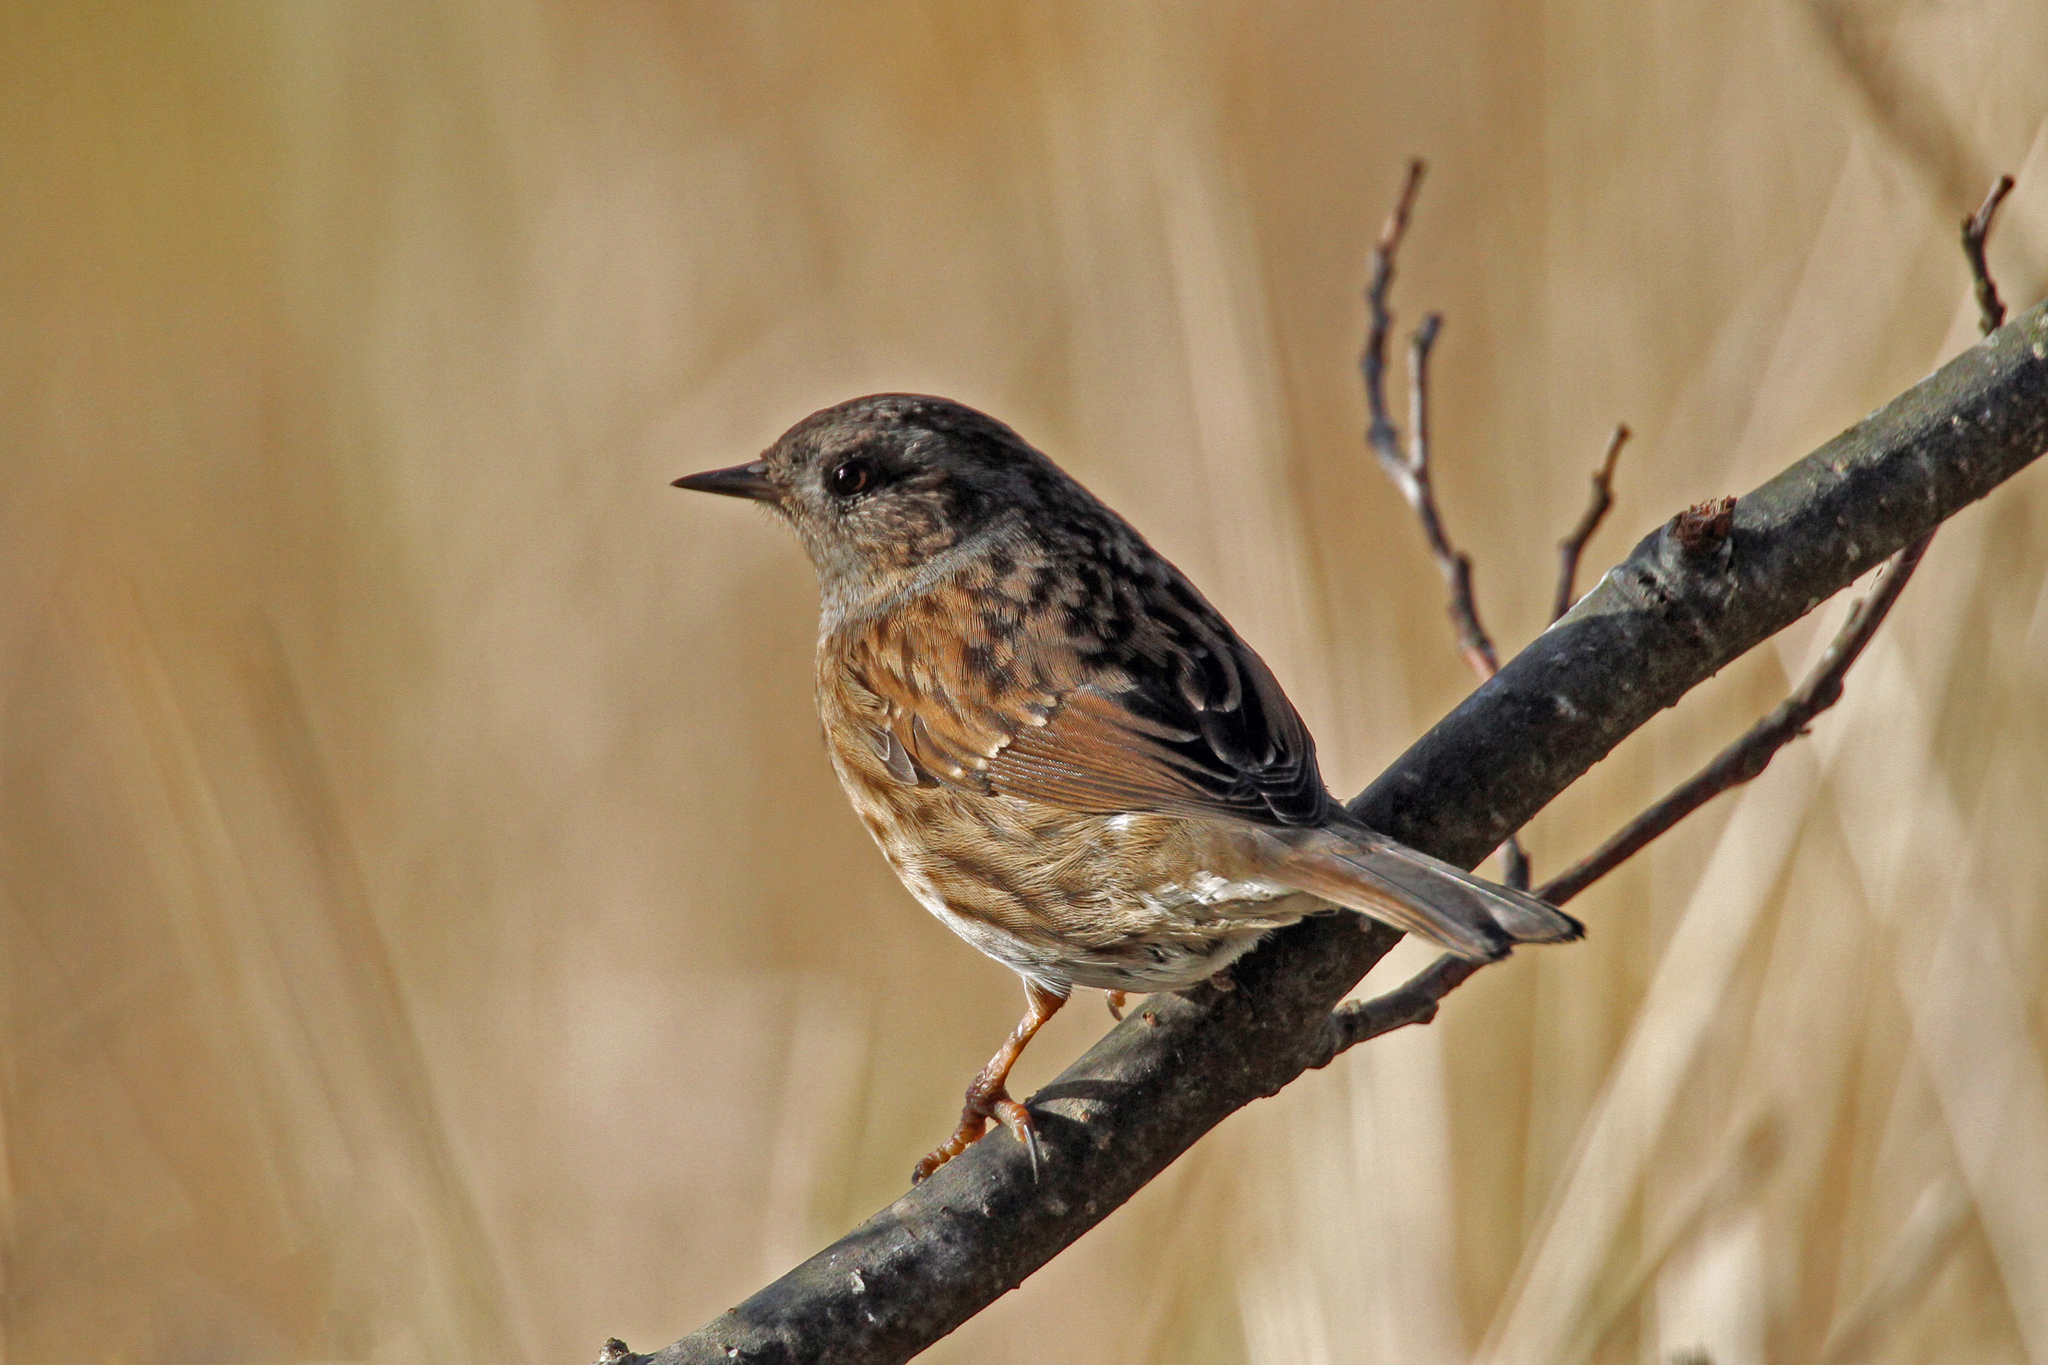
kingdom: Animalia
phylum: Chordata
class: Aves
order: Passeriformes
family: Prunellidae
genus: Prunella
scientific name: Prunella modularis
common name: Dunnock
